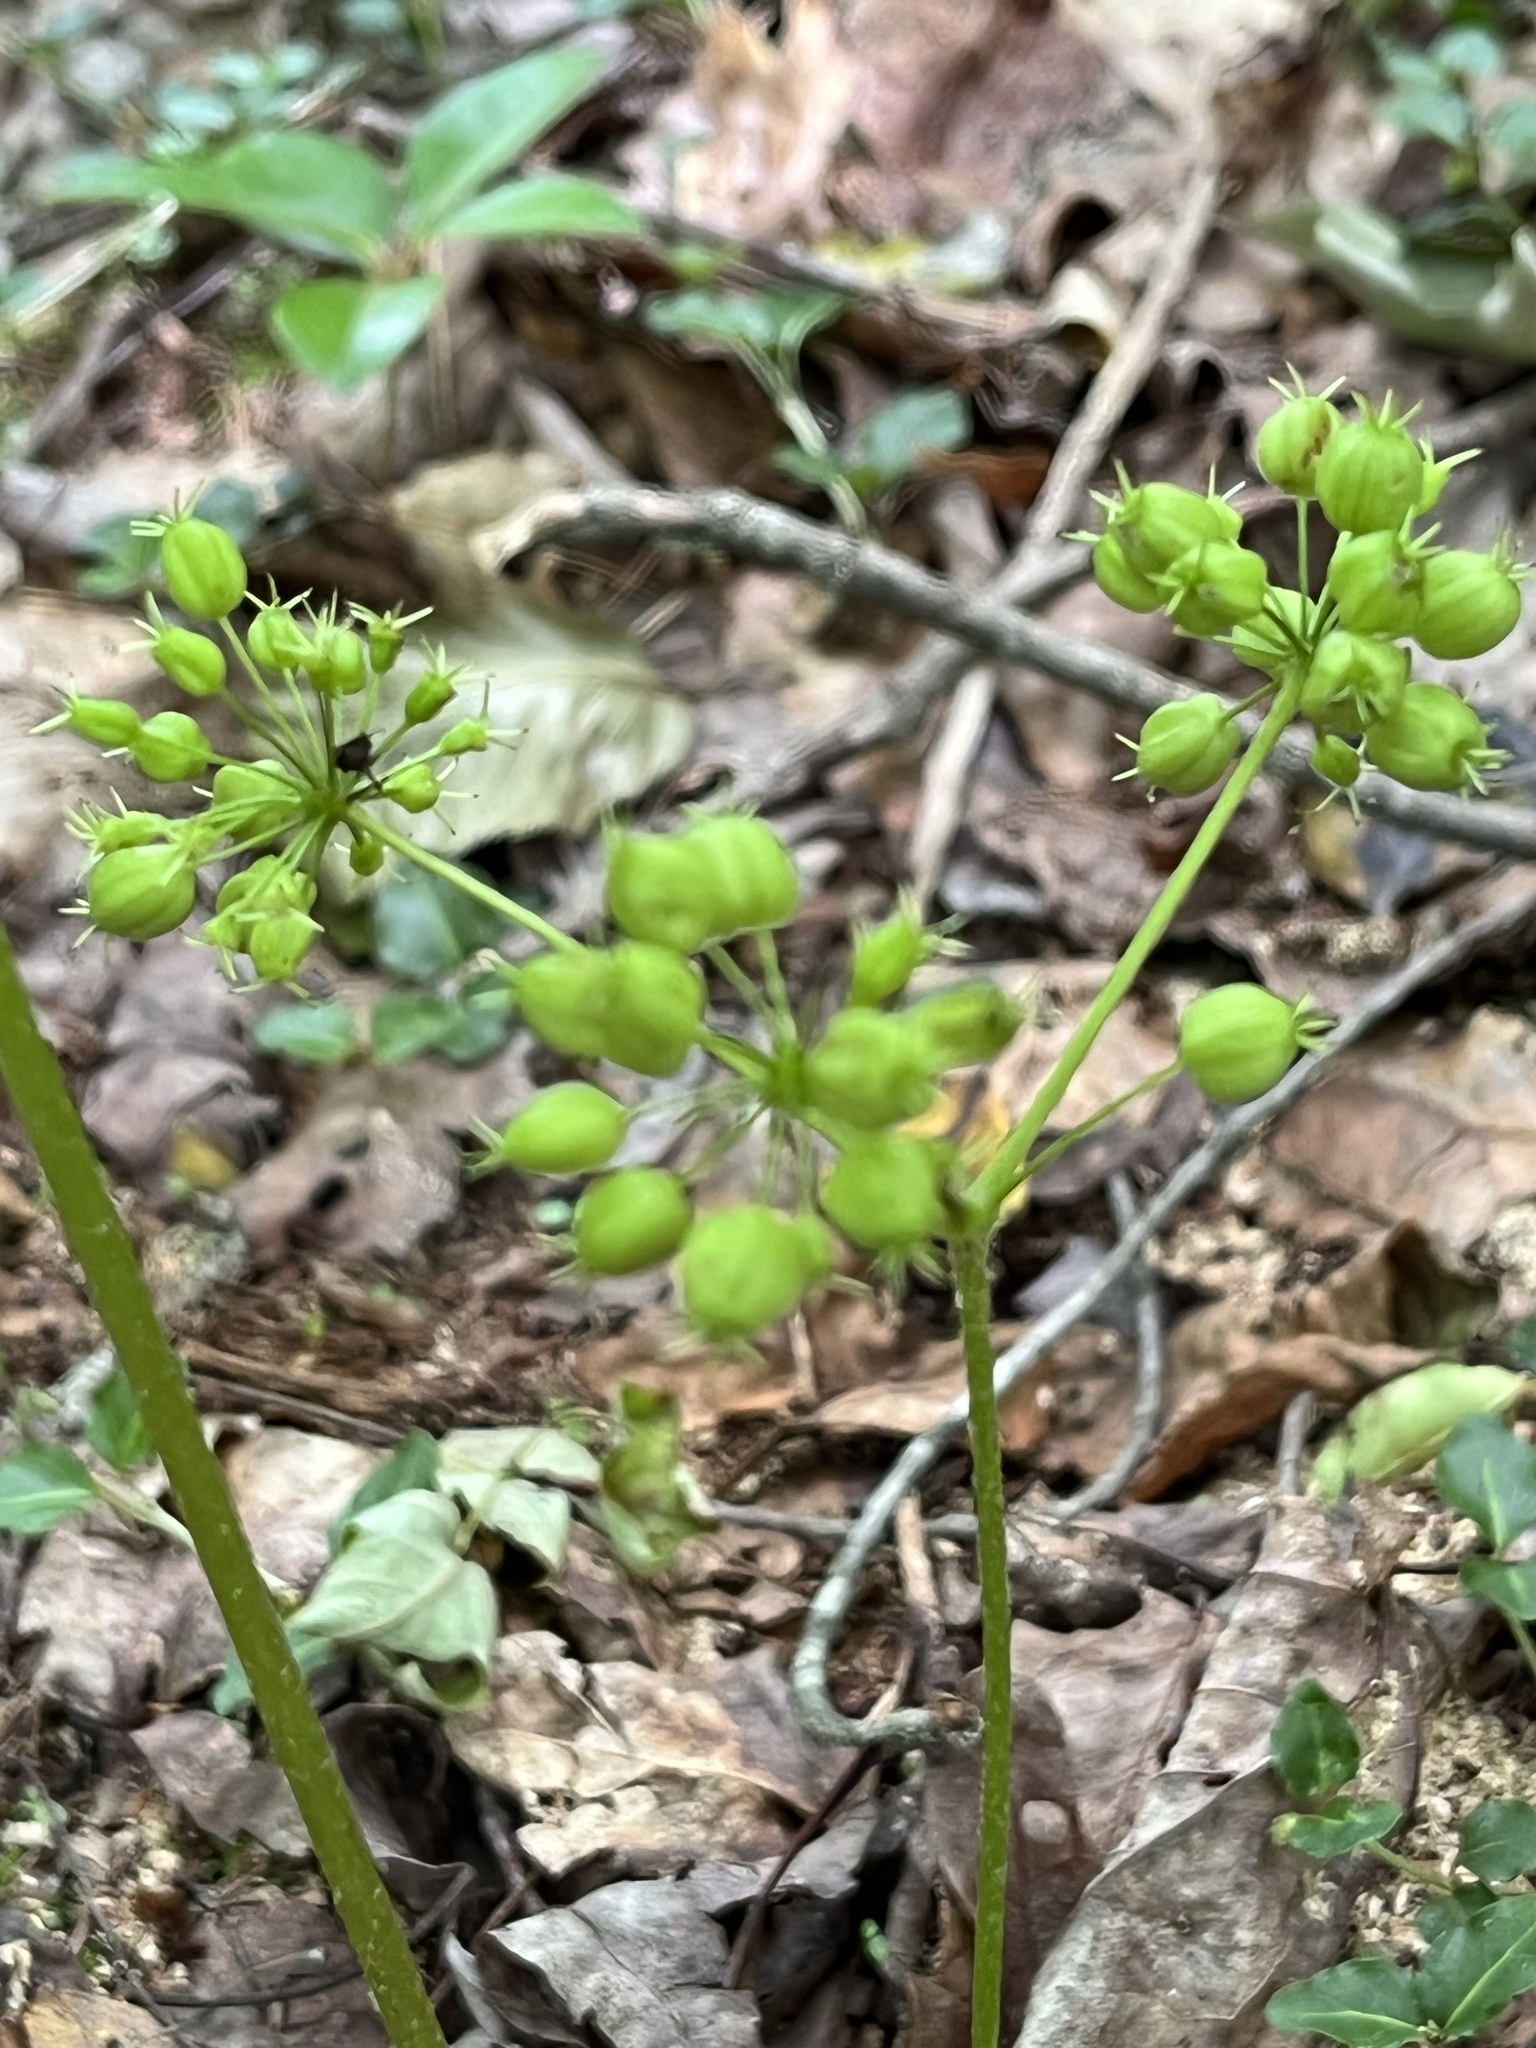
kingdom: Plantae
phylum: Tracheophyta
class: Magnoliopsida
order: Apiales
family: Araliaceae
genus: Aralia
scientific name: Aralia nudicaulis
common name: Wild sarsaparilla
